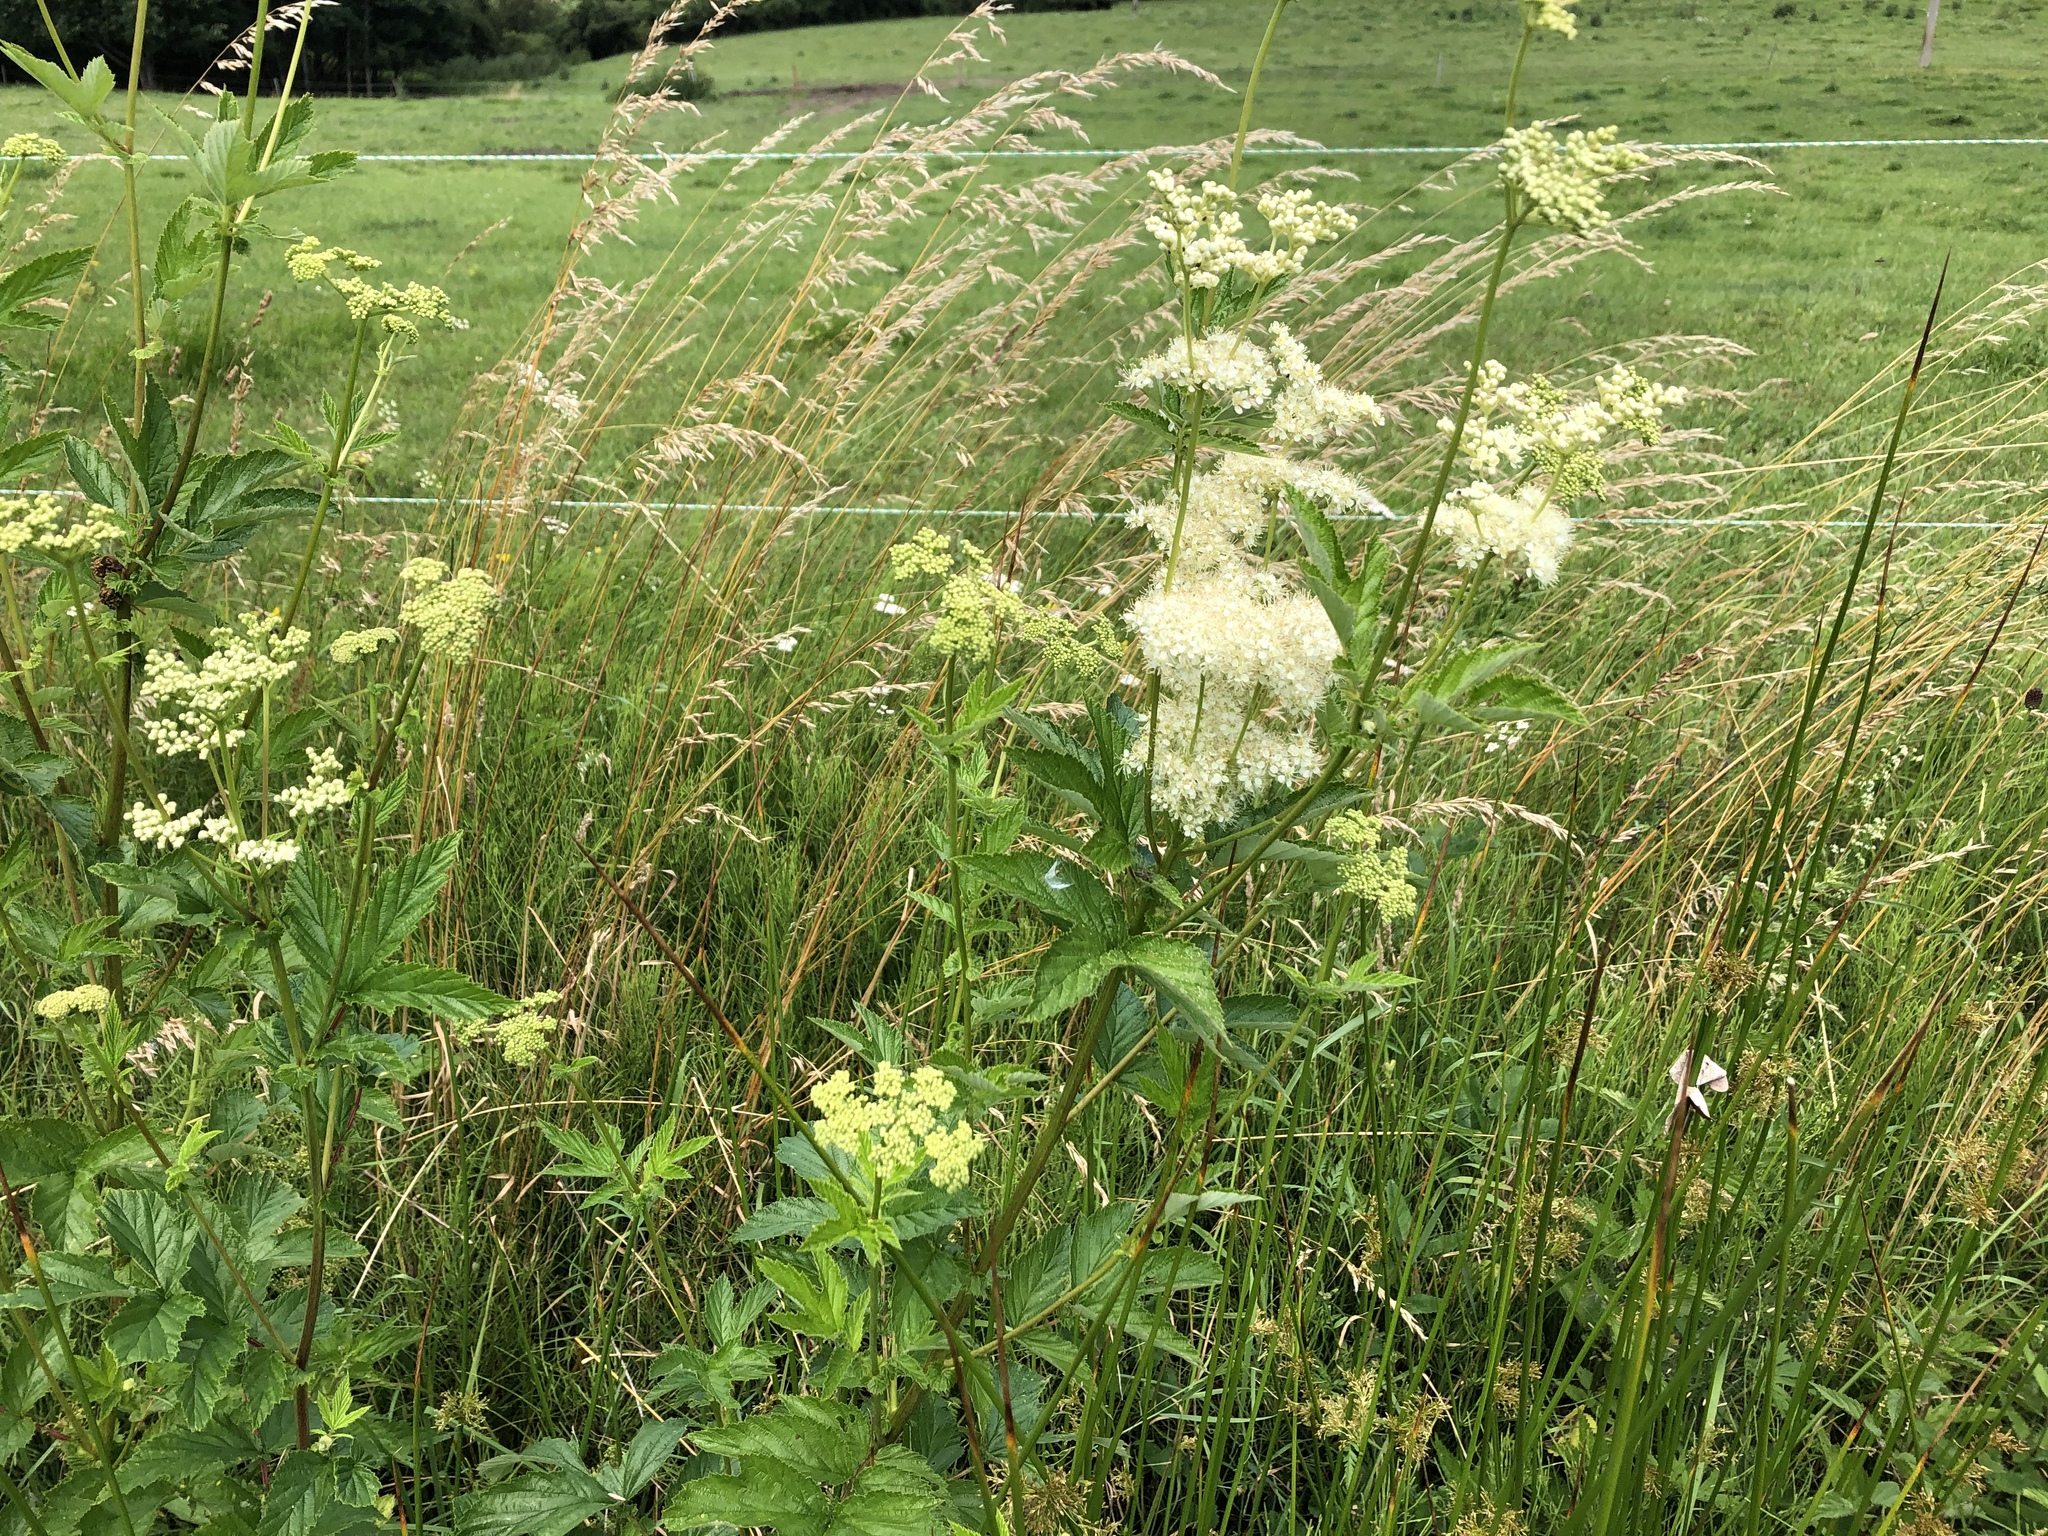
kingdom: Plantae
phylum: Tracheophyta
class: Magnoliopsida
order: Rosales
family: Rosaceae
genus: Filipendula
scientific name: Filipendula ulmaria
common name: Meadowsweet
